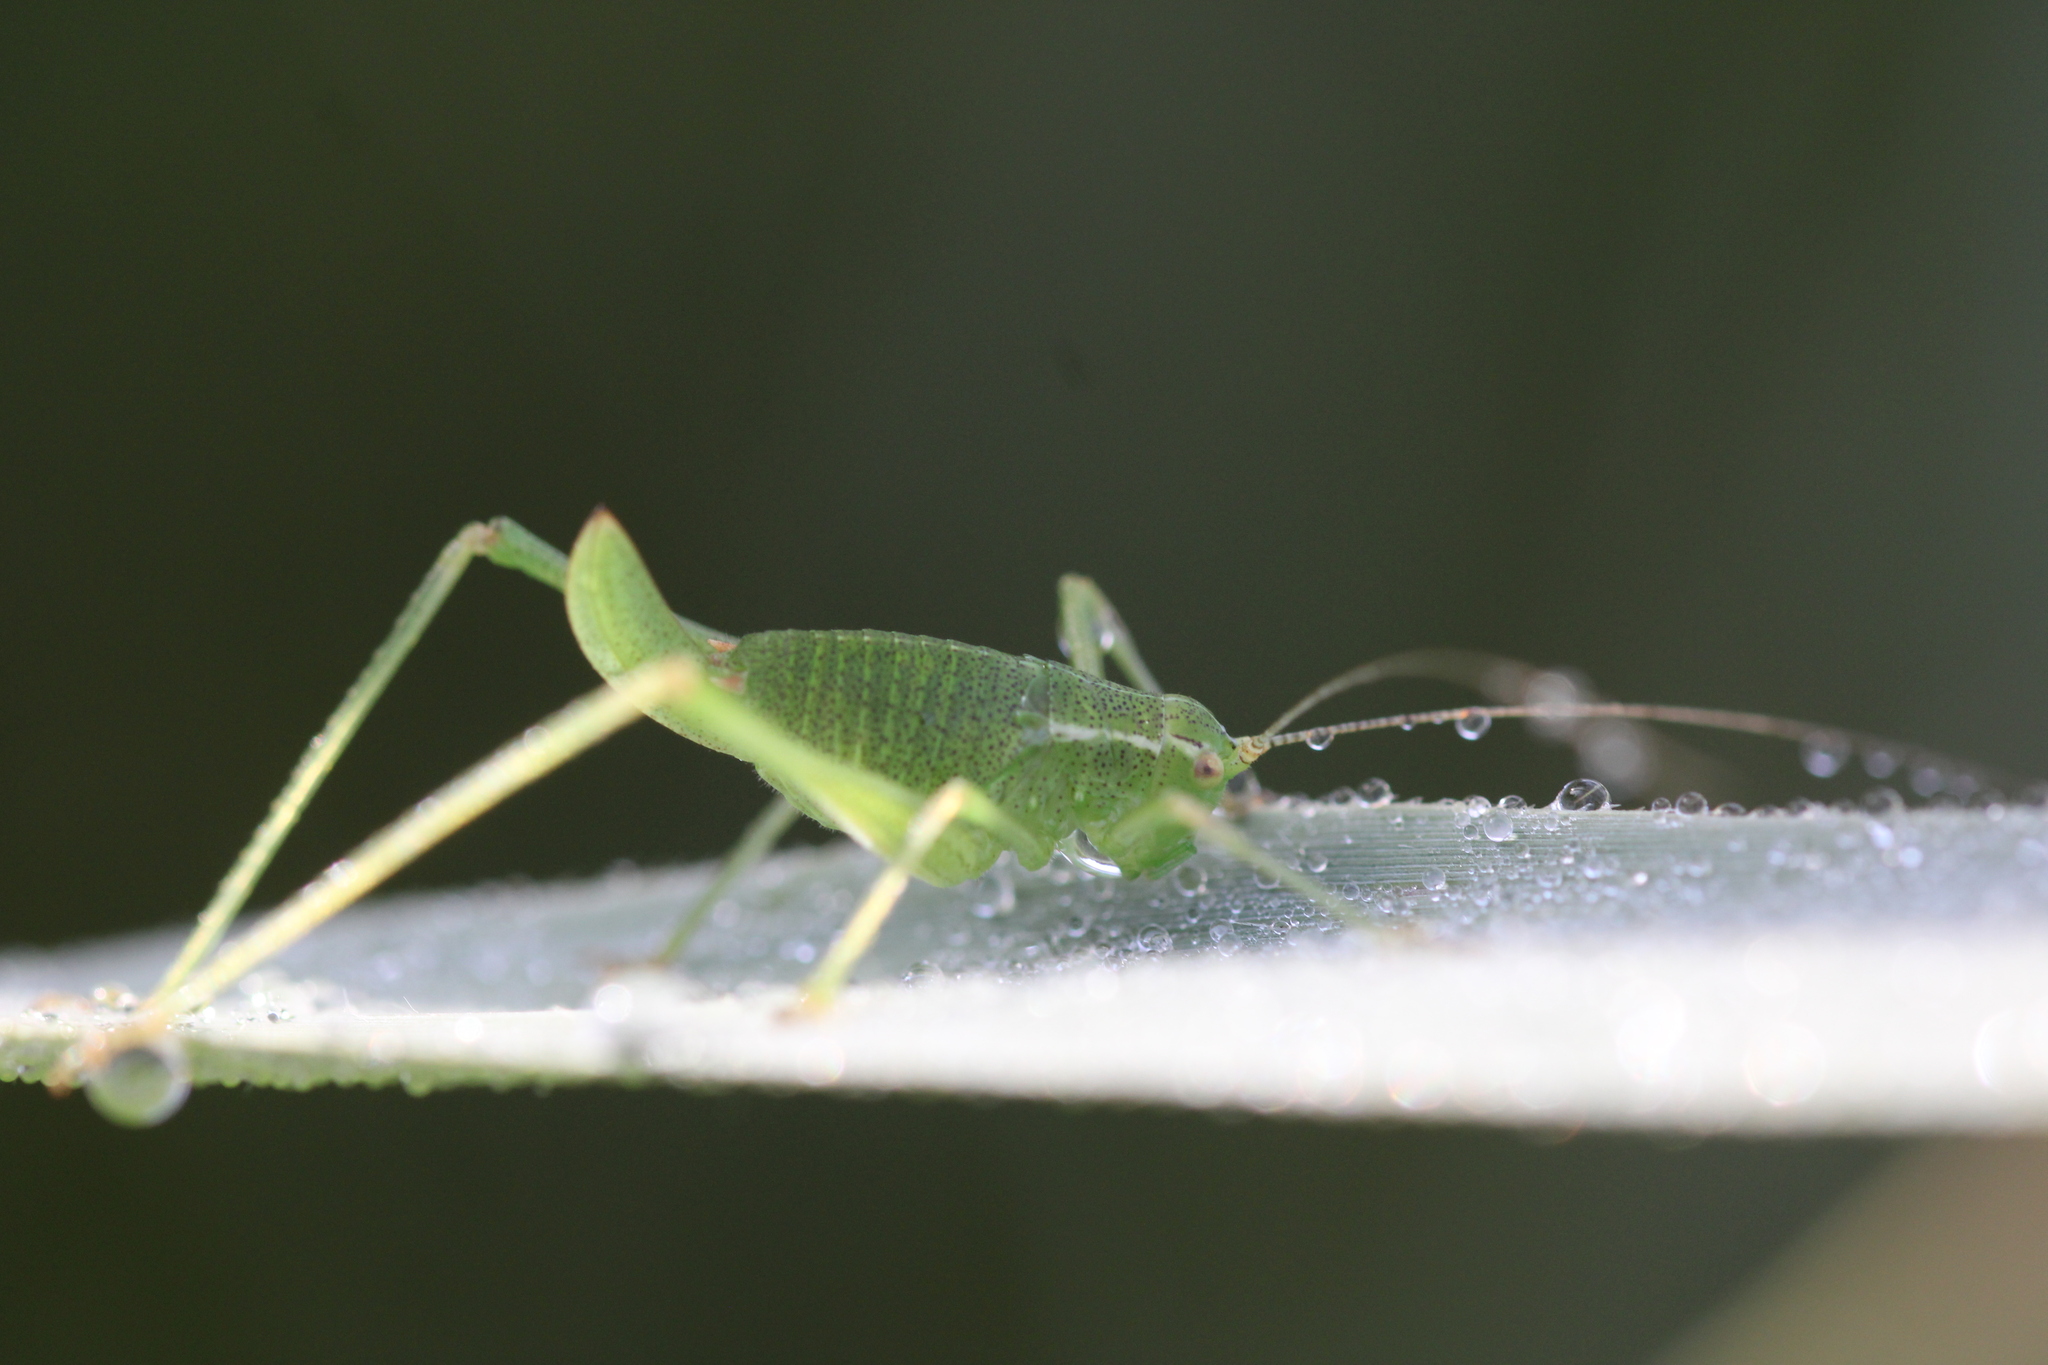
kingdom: Animalia
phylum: Arthropoda
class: Insecta
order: Orthoptera
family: Tettigoniidae
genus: Leptophyes
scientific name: Leptophyes punctatissima
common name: Speckled bush-cricket
